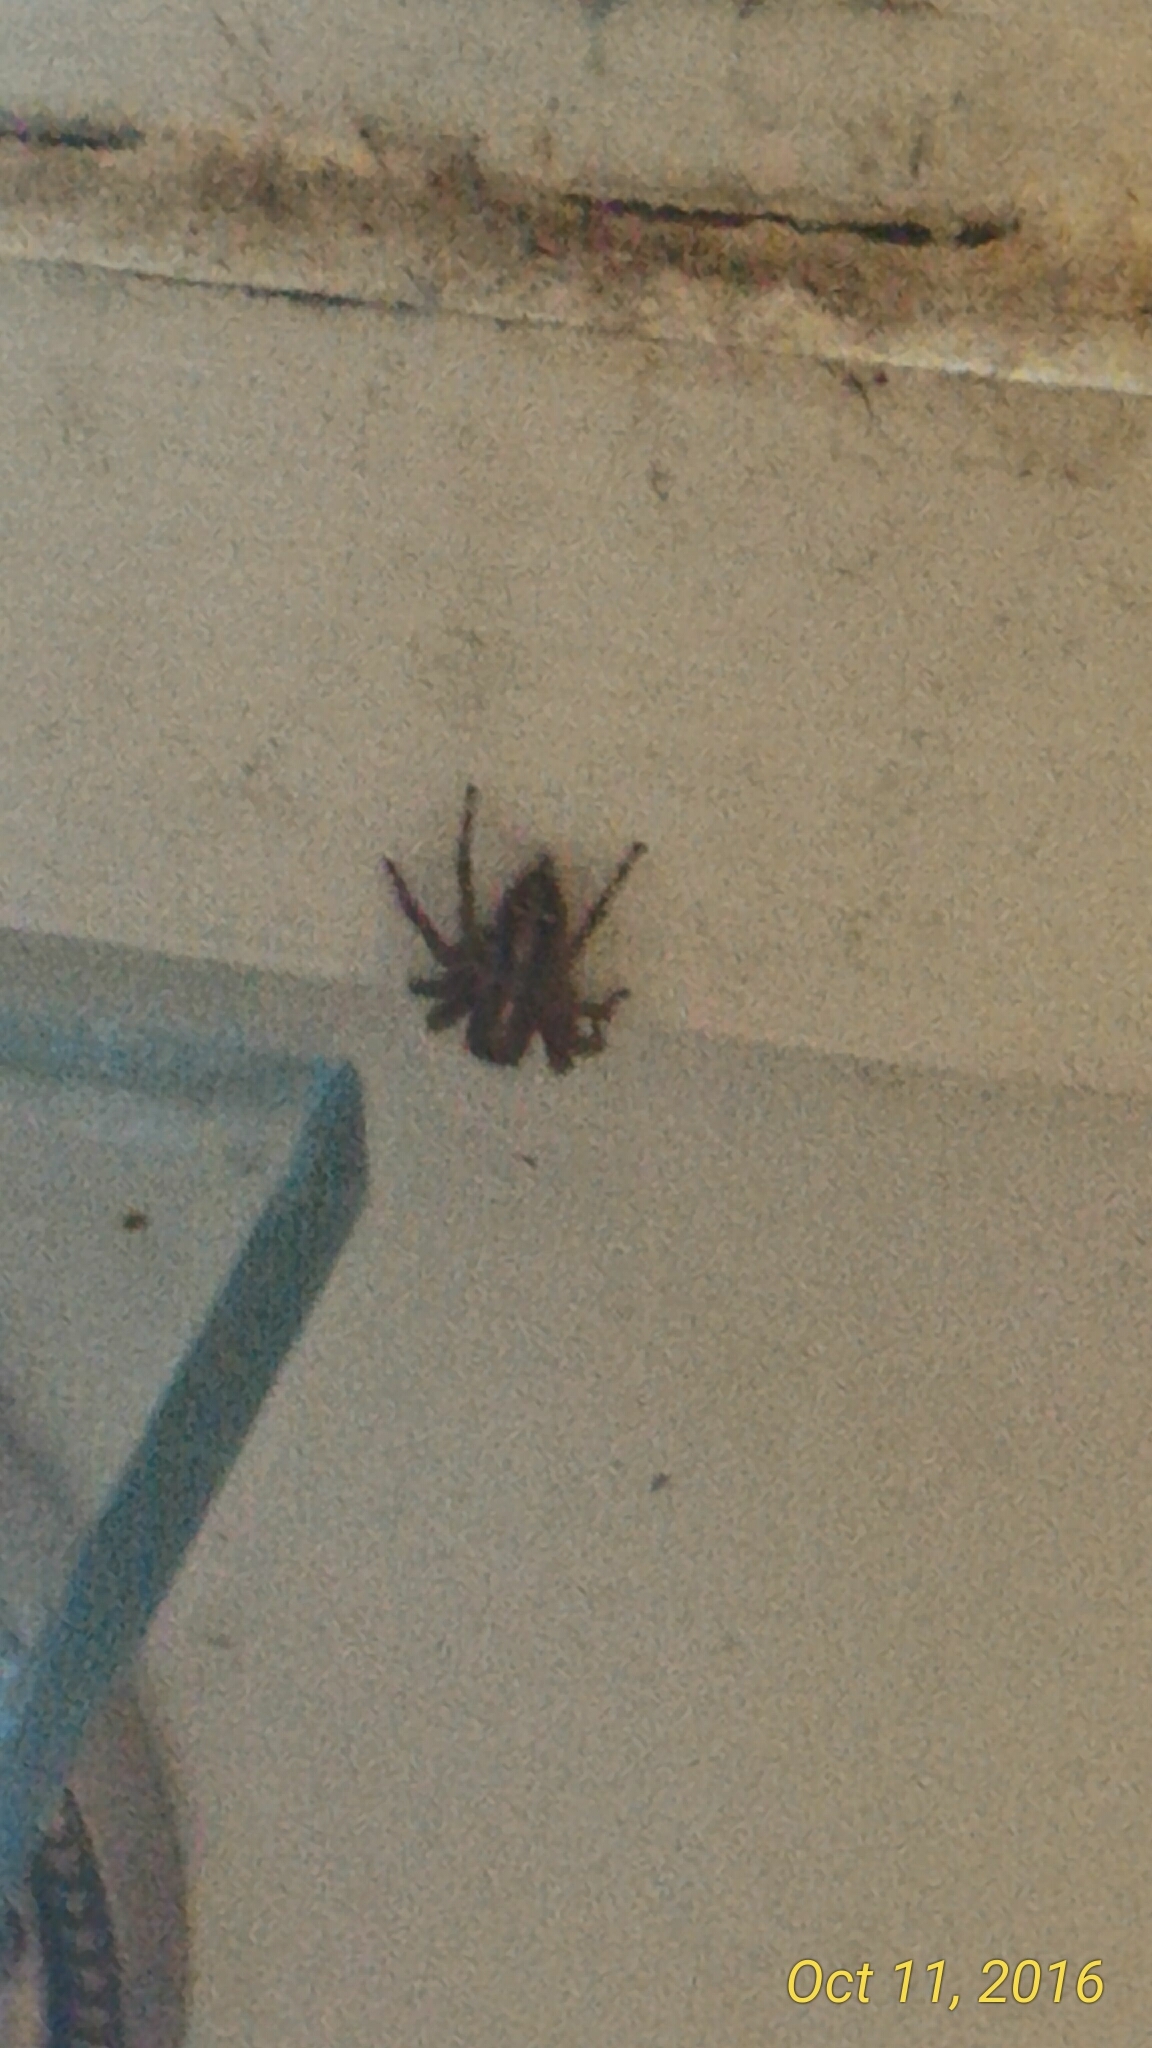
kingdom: Animalia
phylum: Arthropoda
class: Arachnida
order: Araneae
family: Salticidae
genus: Plexippus
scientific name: Plexippus paykulli
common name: Pantropical jumper
